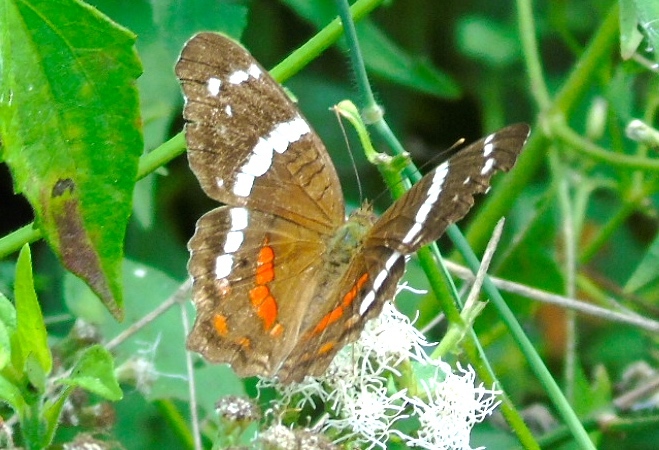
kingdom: Animalia
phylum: Arthropoda
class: Insecta
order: Lepidoptera
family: Nymphalidae
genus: Anartia
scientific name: Anartia fatima
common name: Banded peacock
